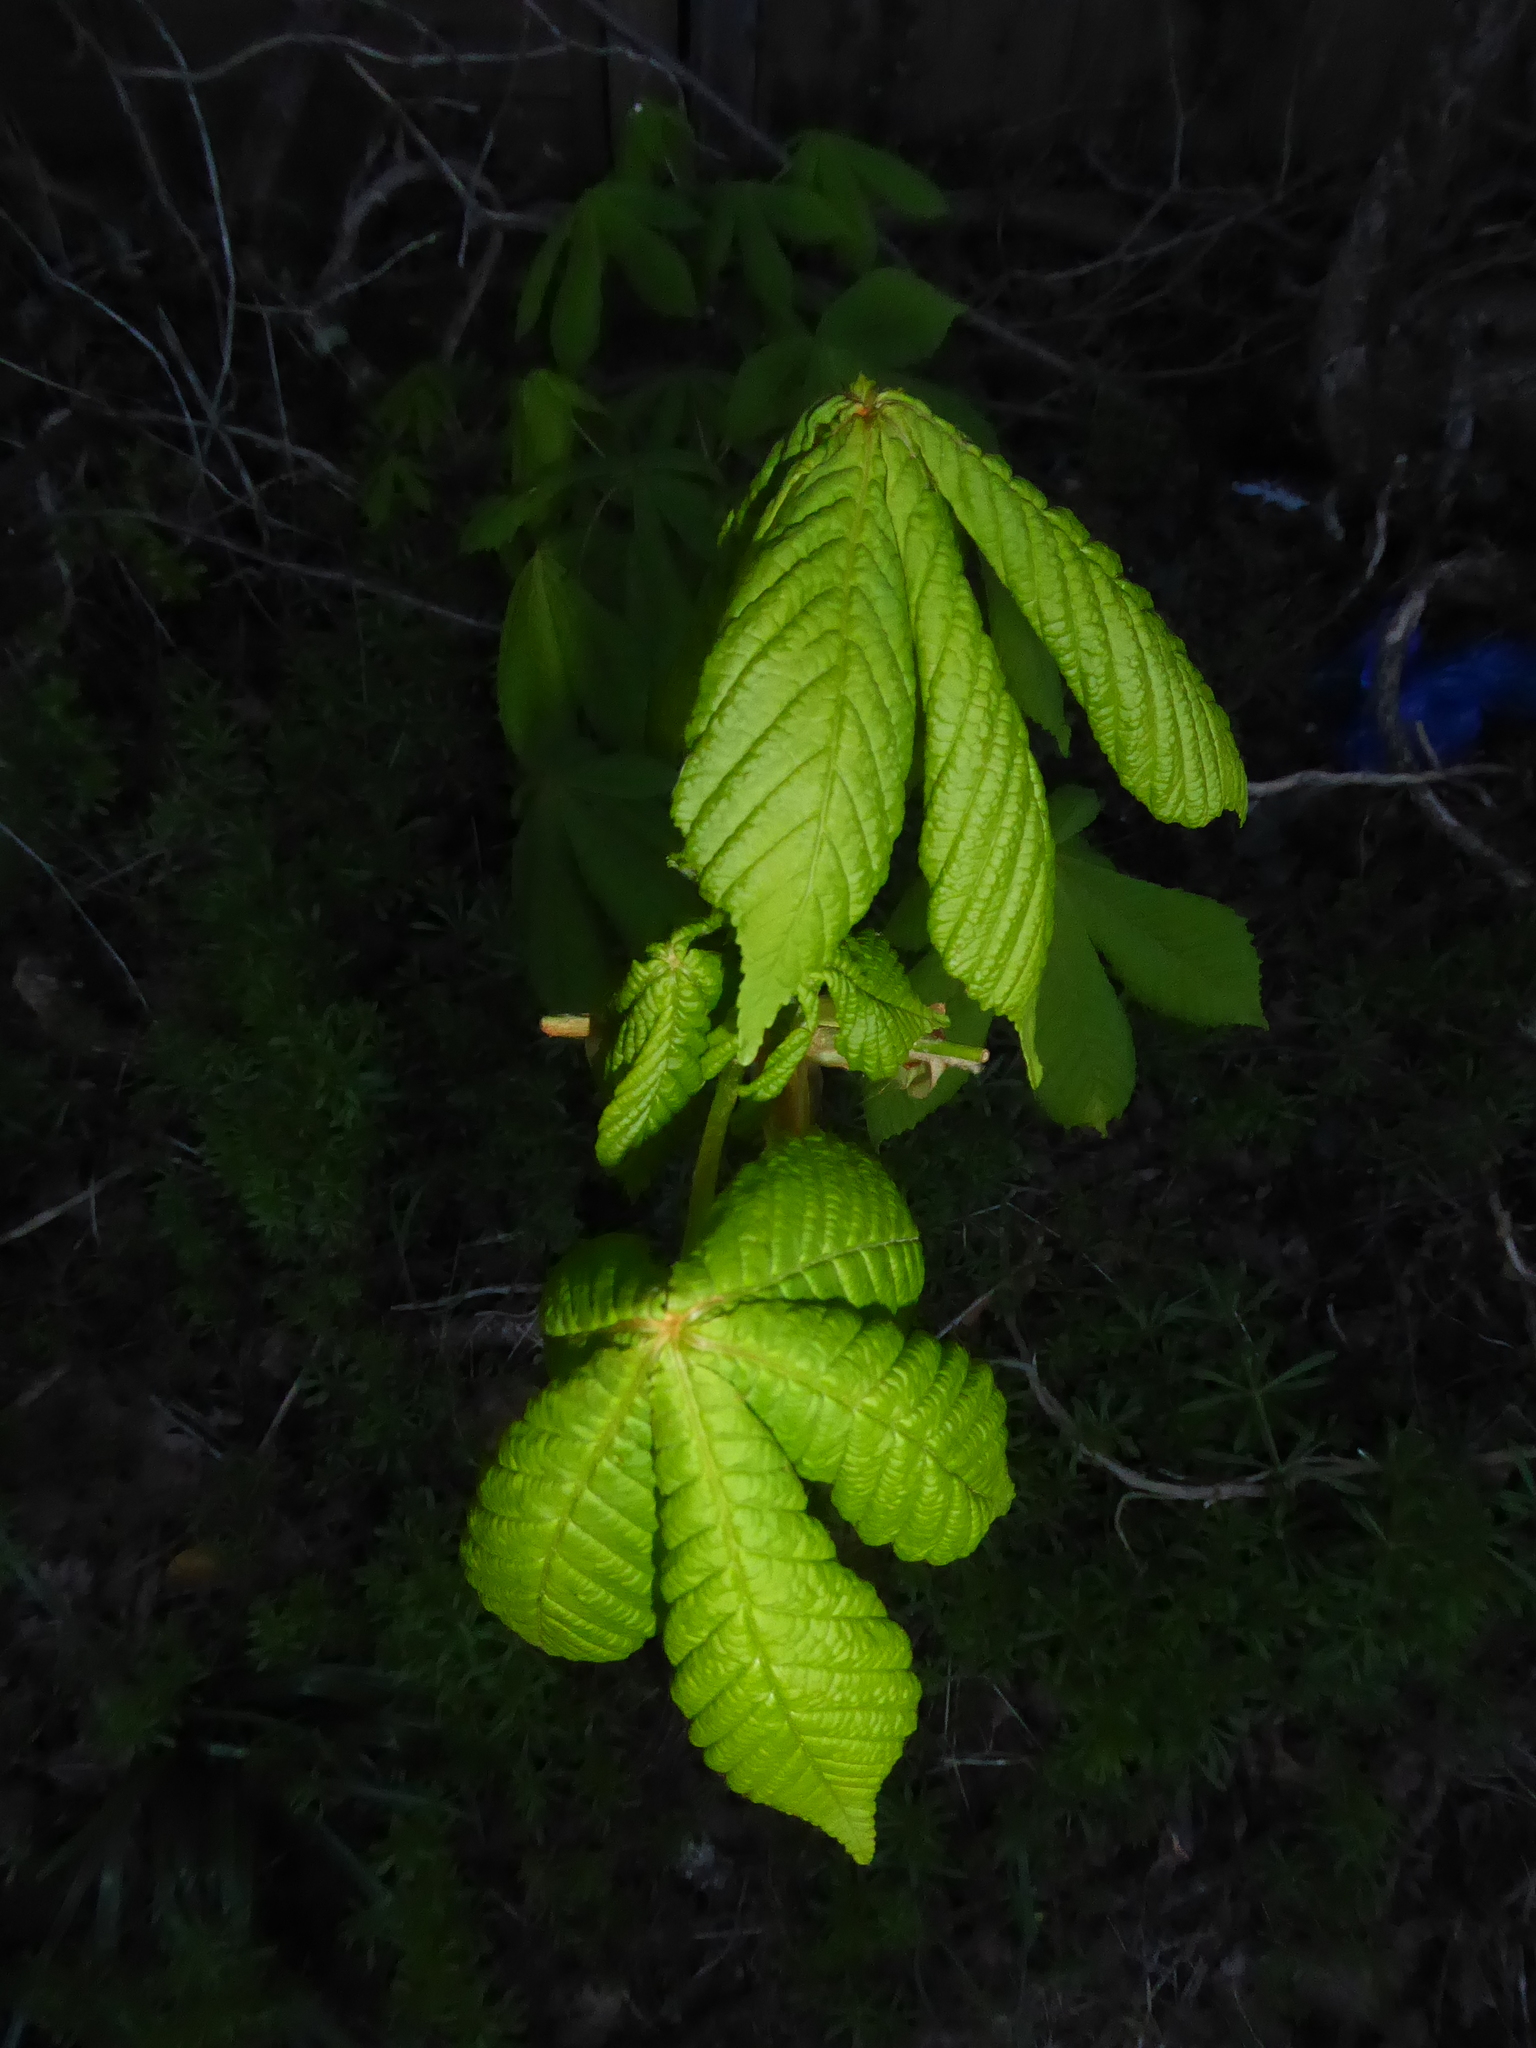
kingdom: Plantae
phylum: Tracheophyta
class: Magnoliopsida
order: Sapindales
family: Sapindaceae
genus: Aesculus
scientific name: Aesculus hippocastanum
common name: Horse-chestnut
